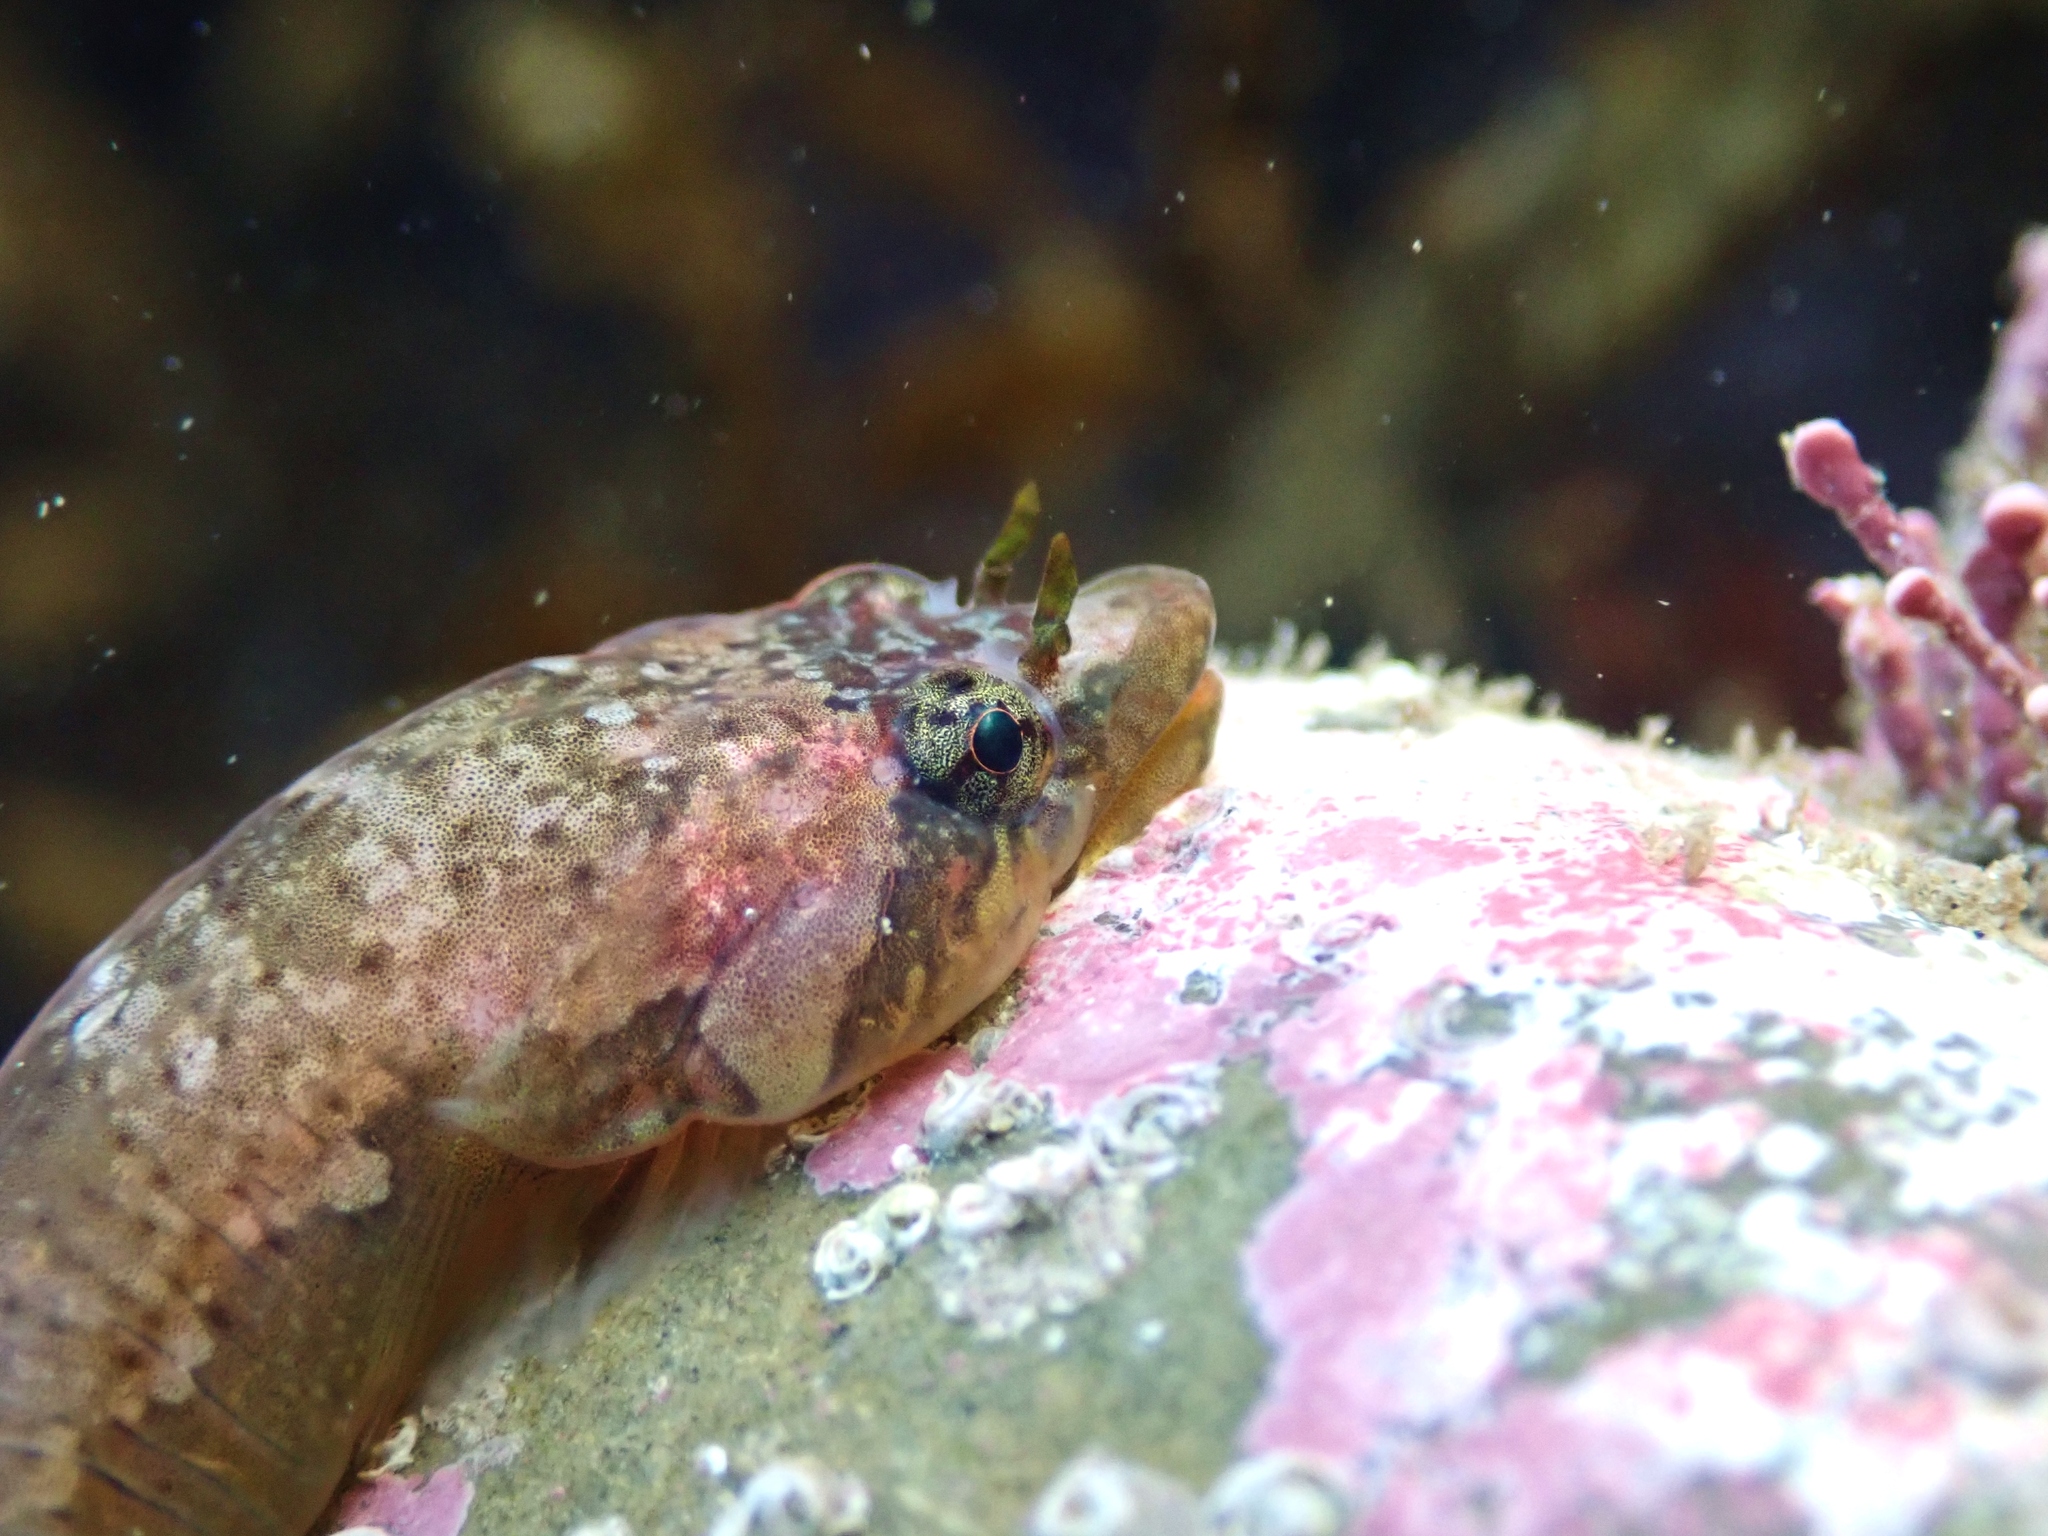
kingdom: Animalia
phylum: Chordata
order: Gobiesociformes
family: Gobiesocidae
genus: Trachelochismus
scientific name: Trachelochismus melobesia
